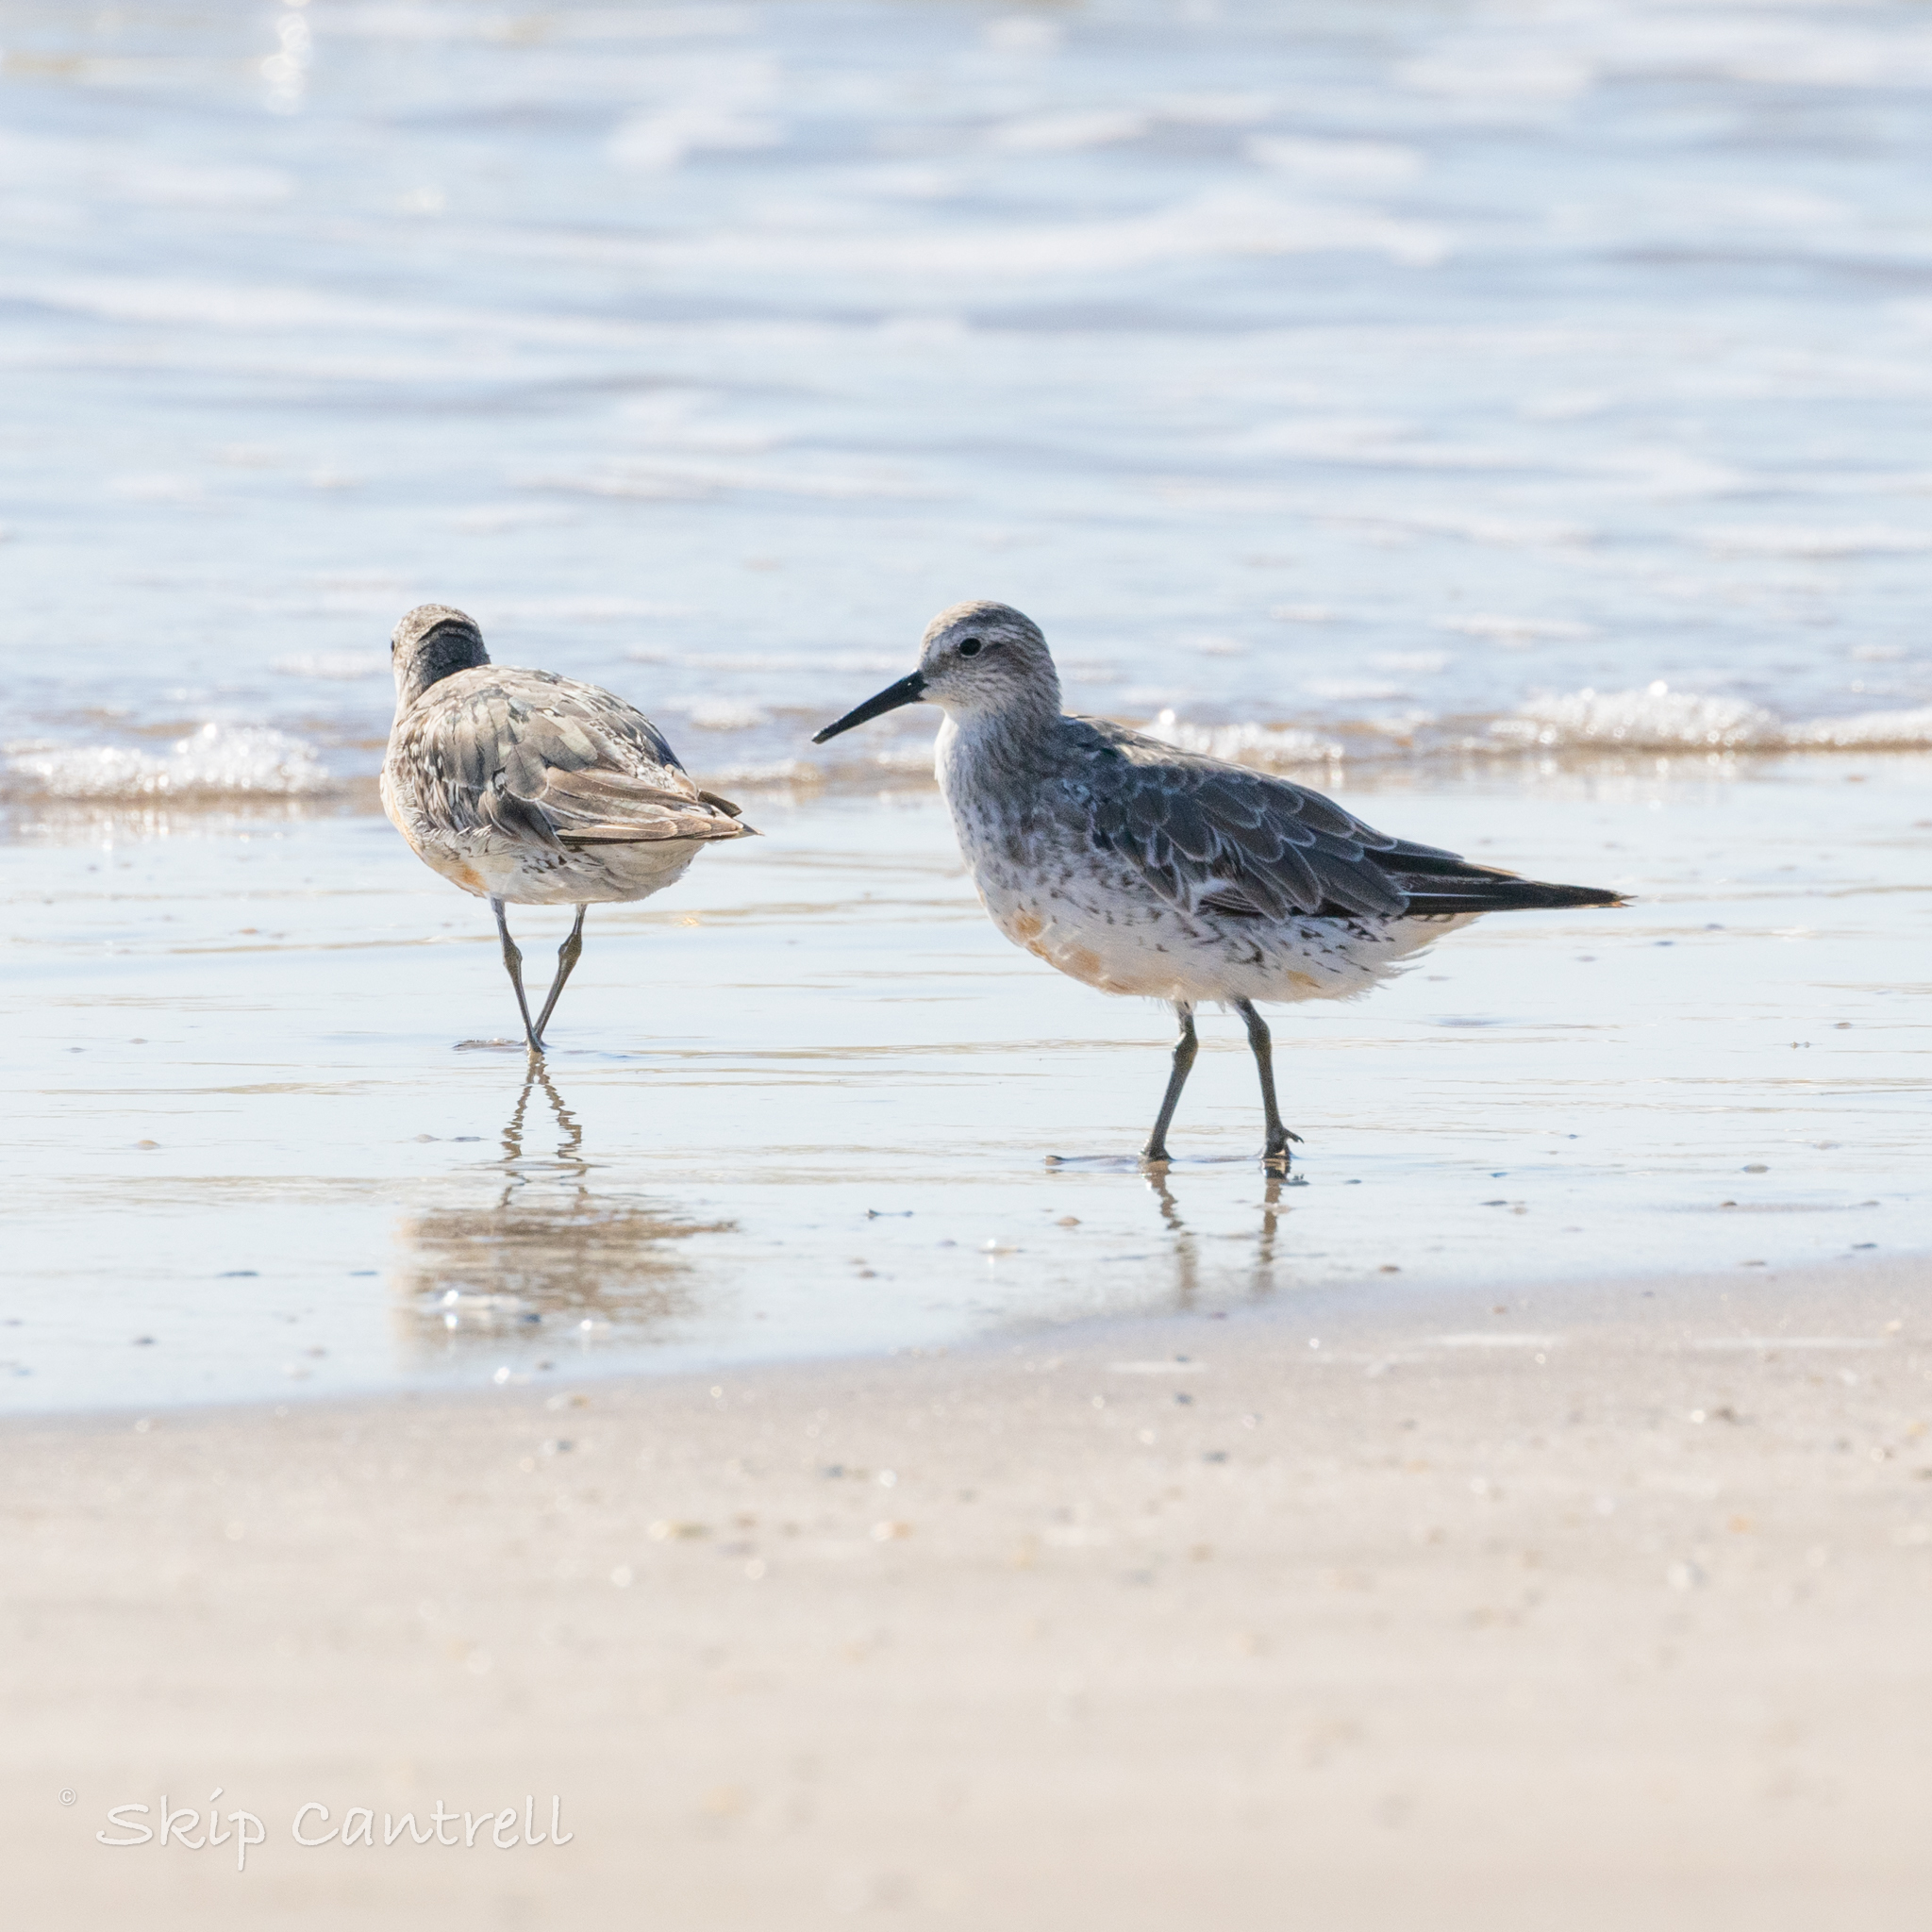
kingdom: Animalia
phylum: Chordata
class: Aves
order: Charadriiformes
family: Scolopacidae
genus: Calidris
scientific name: Calidris canutus
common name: Red knot
